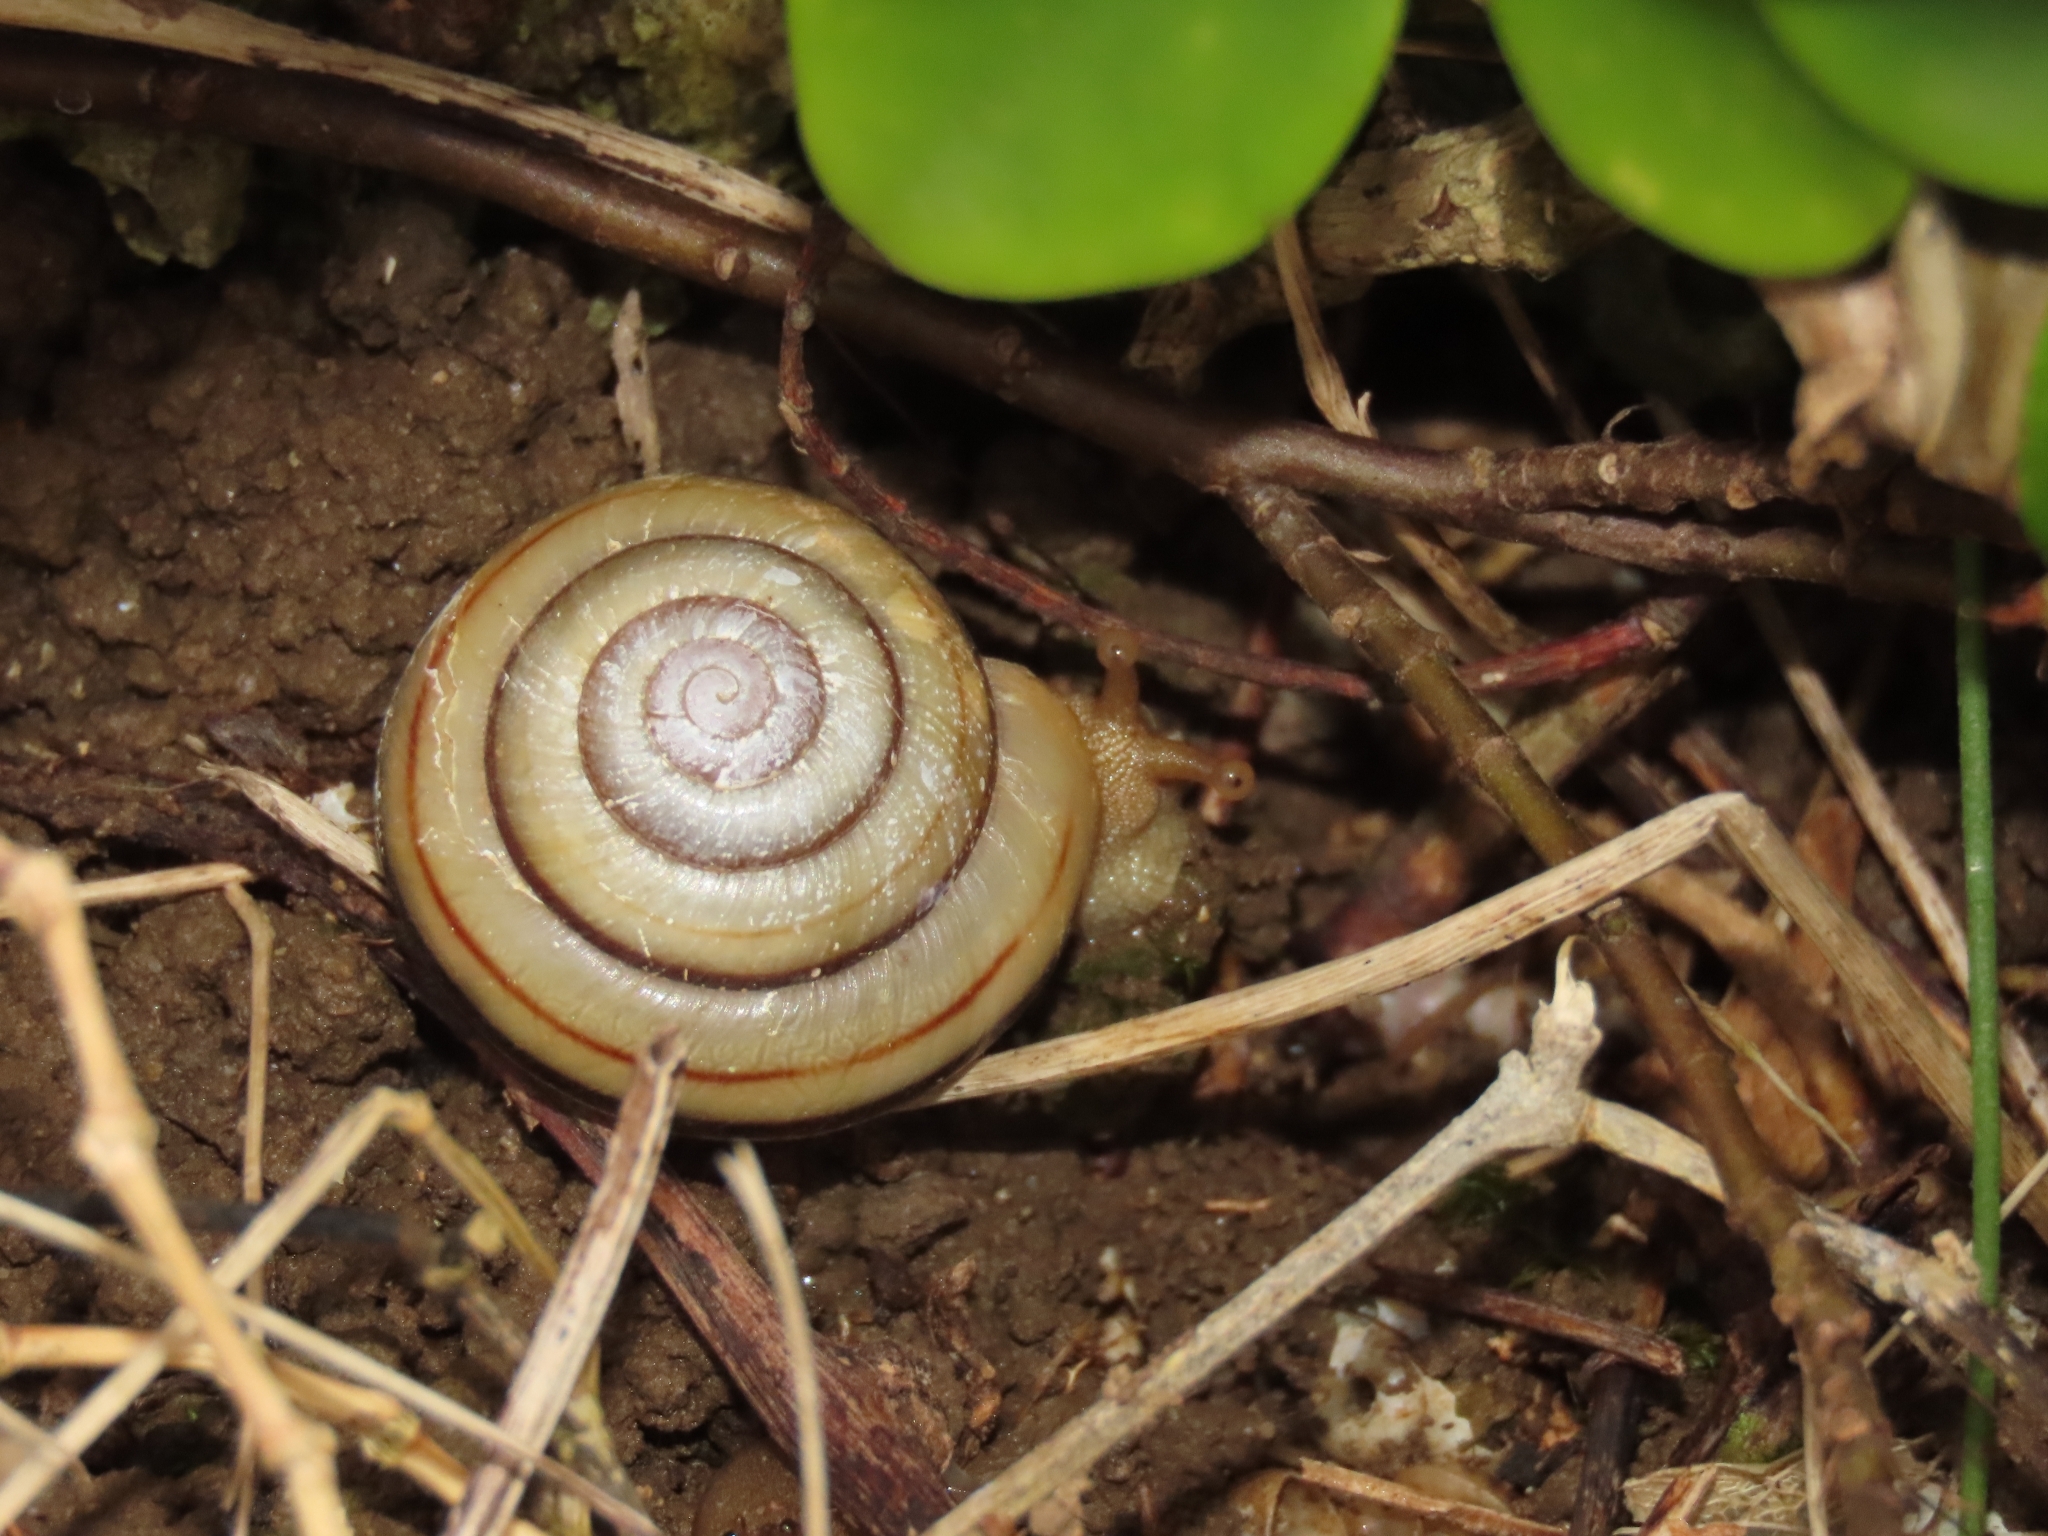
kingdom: Animalia
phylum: Mollusca
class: Gastropoda
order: Stylommatophora
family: Camaenidae
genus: Pancala
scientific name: Pancala batanica
